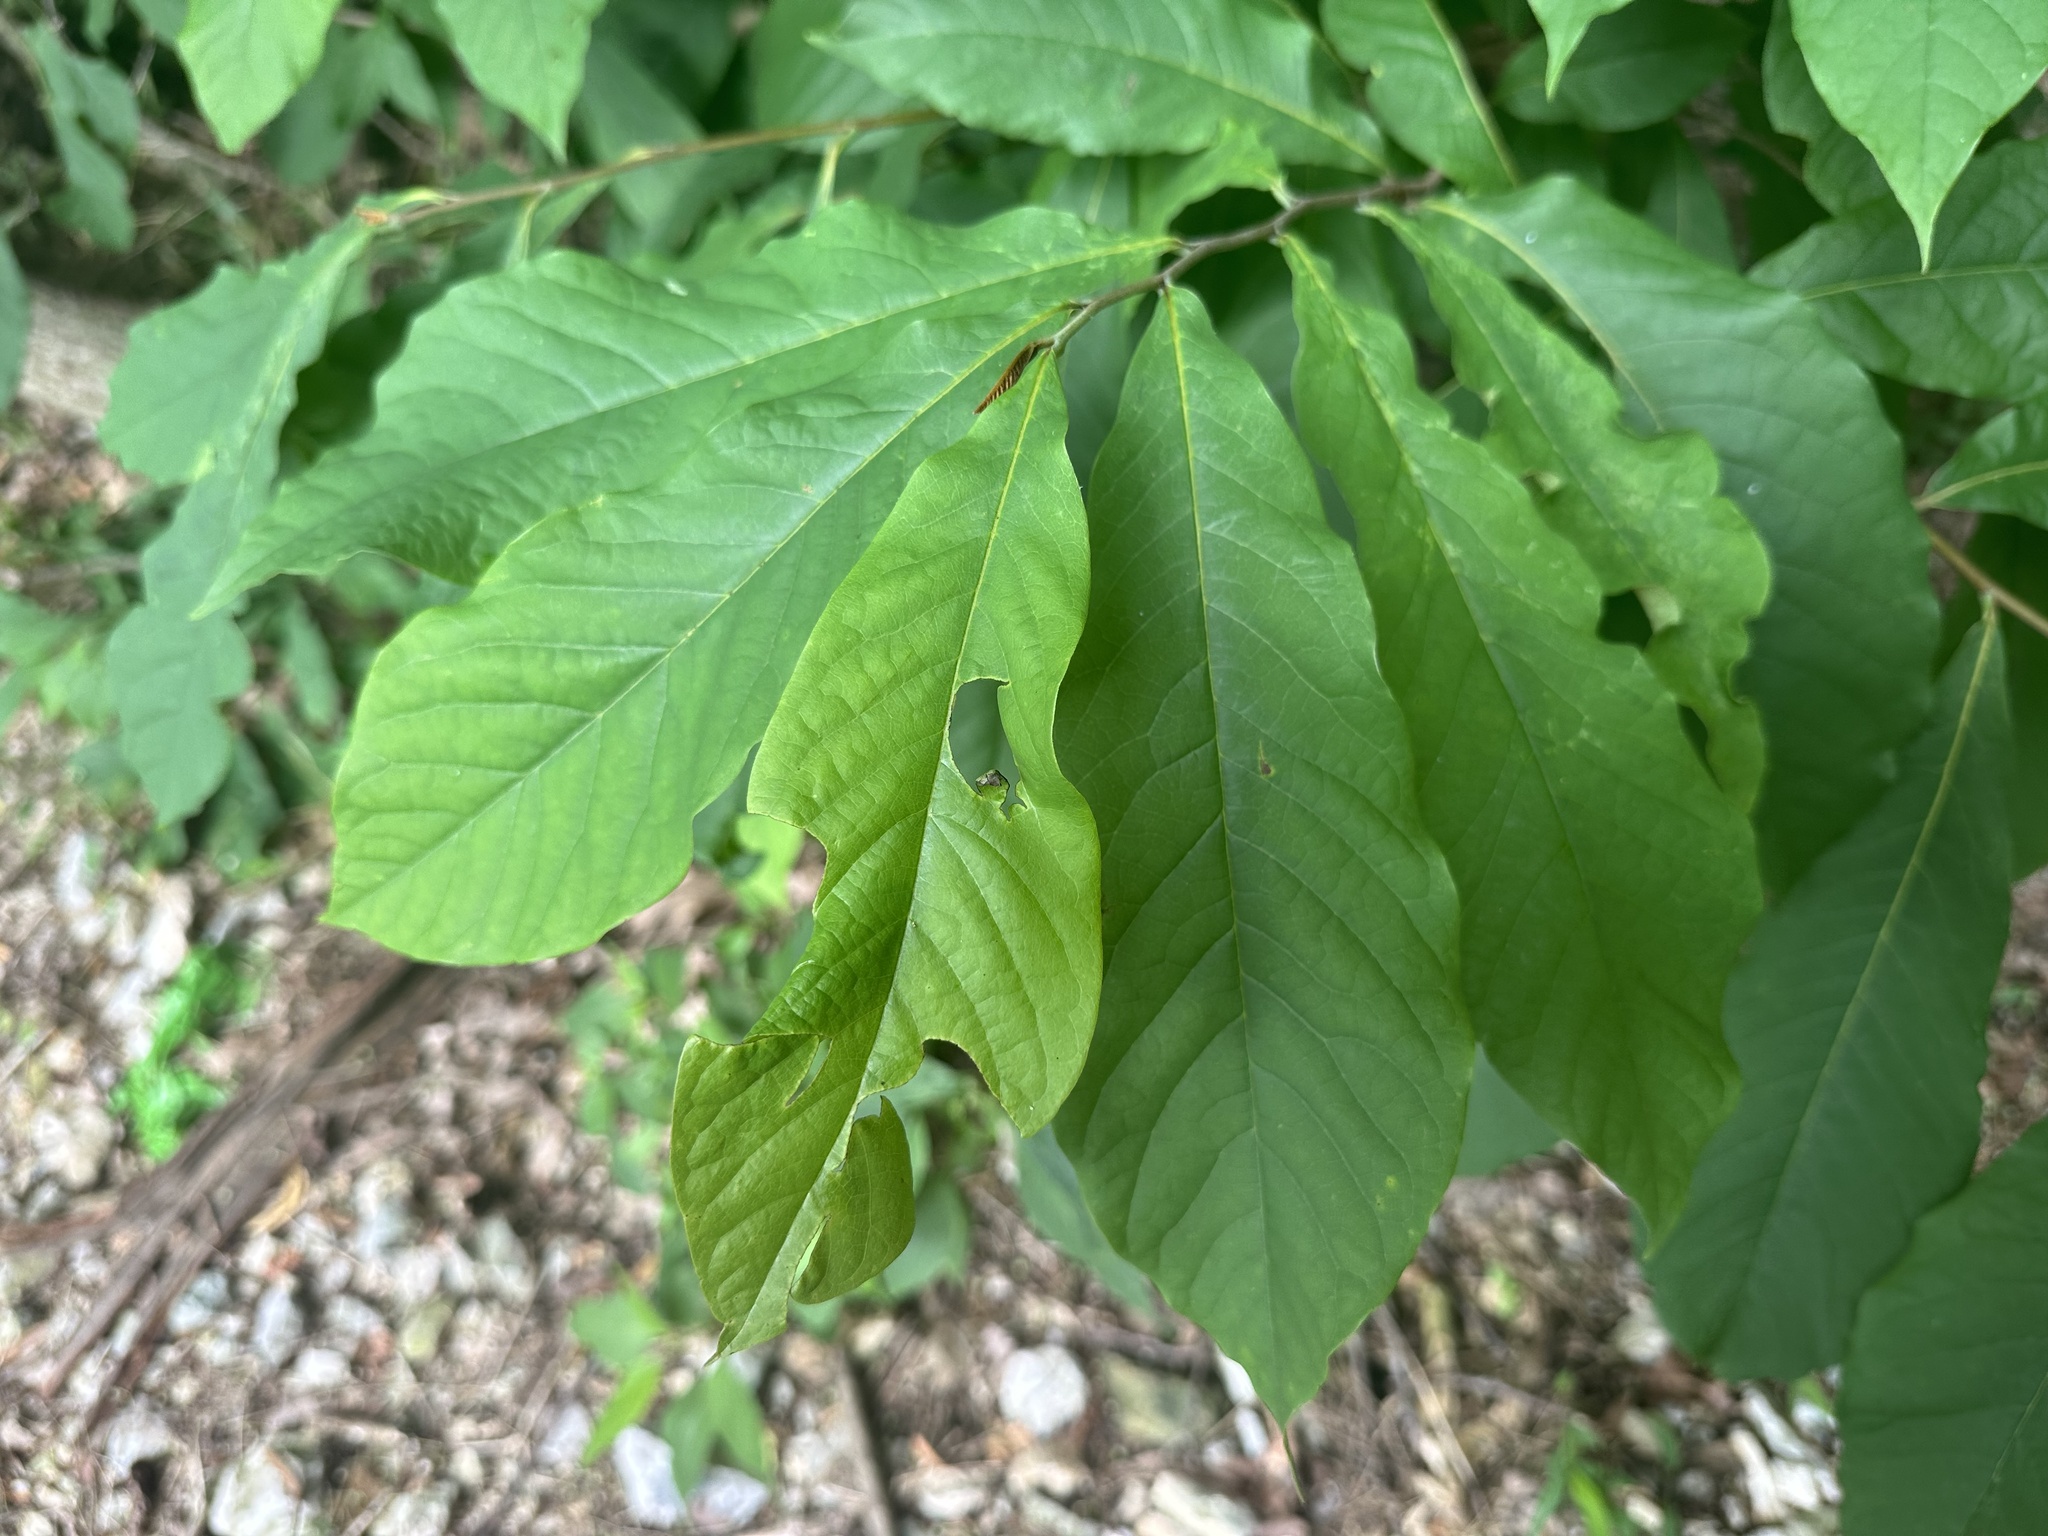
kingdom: Plantae
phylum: Tracheophyta
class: Magnoliopsida
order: Magnoliales
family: Annonaceae
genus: Asimina
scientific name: Asimina triloba
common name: Dog-banana
